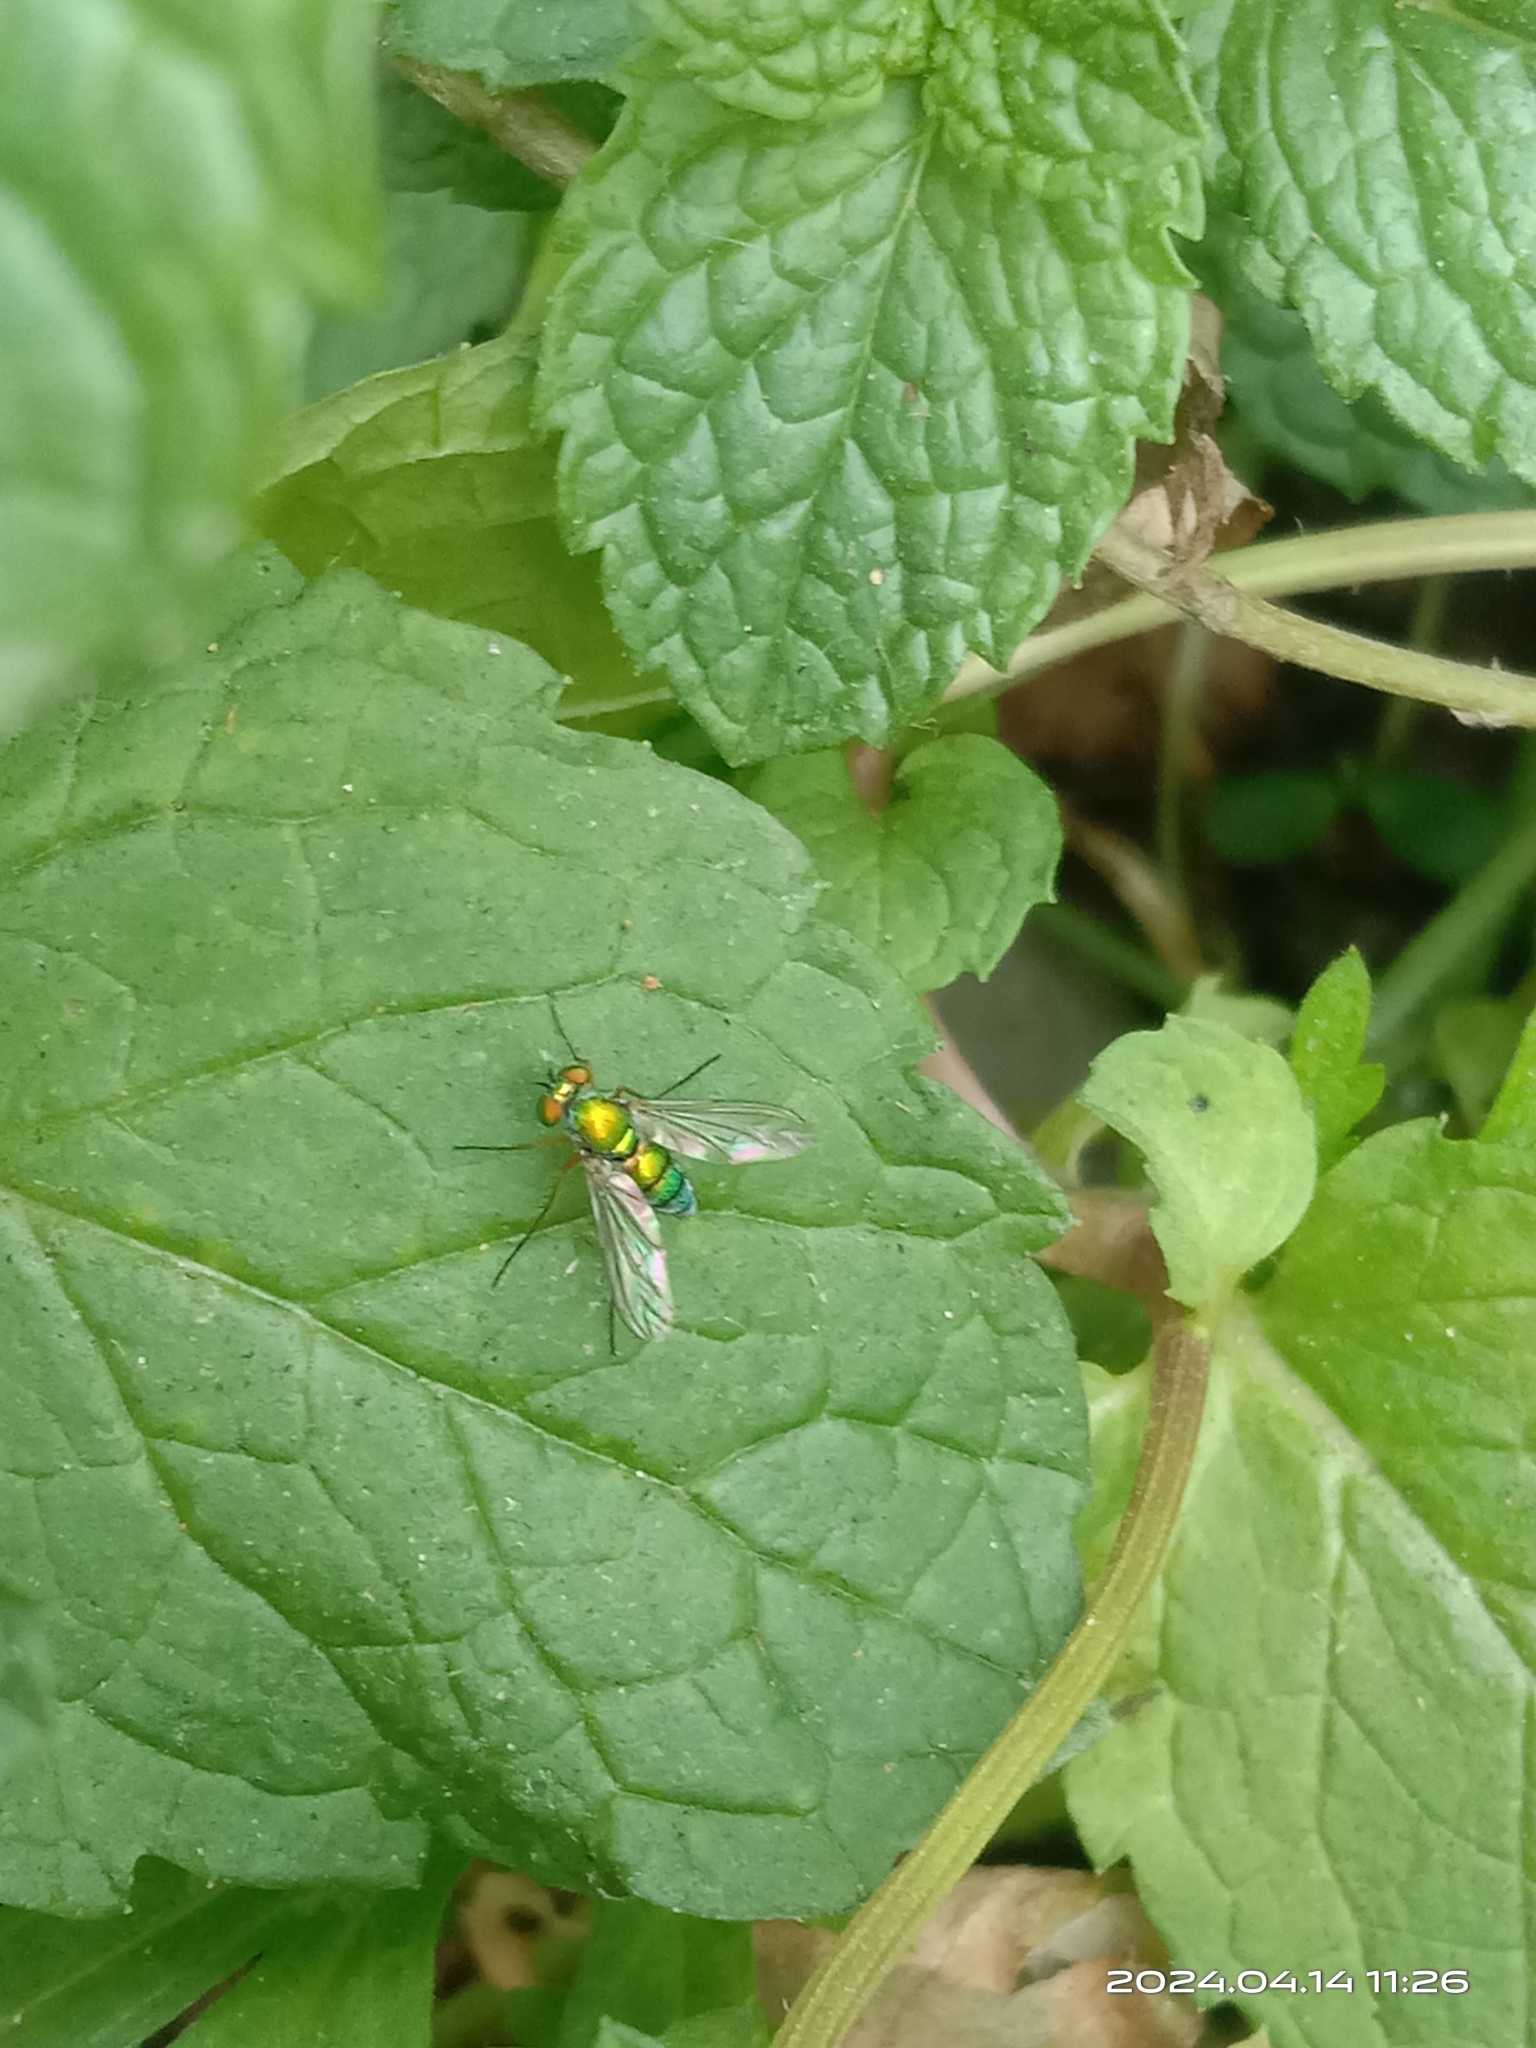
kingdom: Animalia
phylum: Arthropoda
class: Insecta
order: Diptera
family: Dolichopodidae
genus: Chrysosoma
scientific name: Chrysosoma globifer
